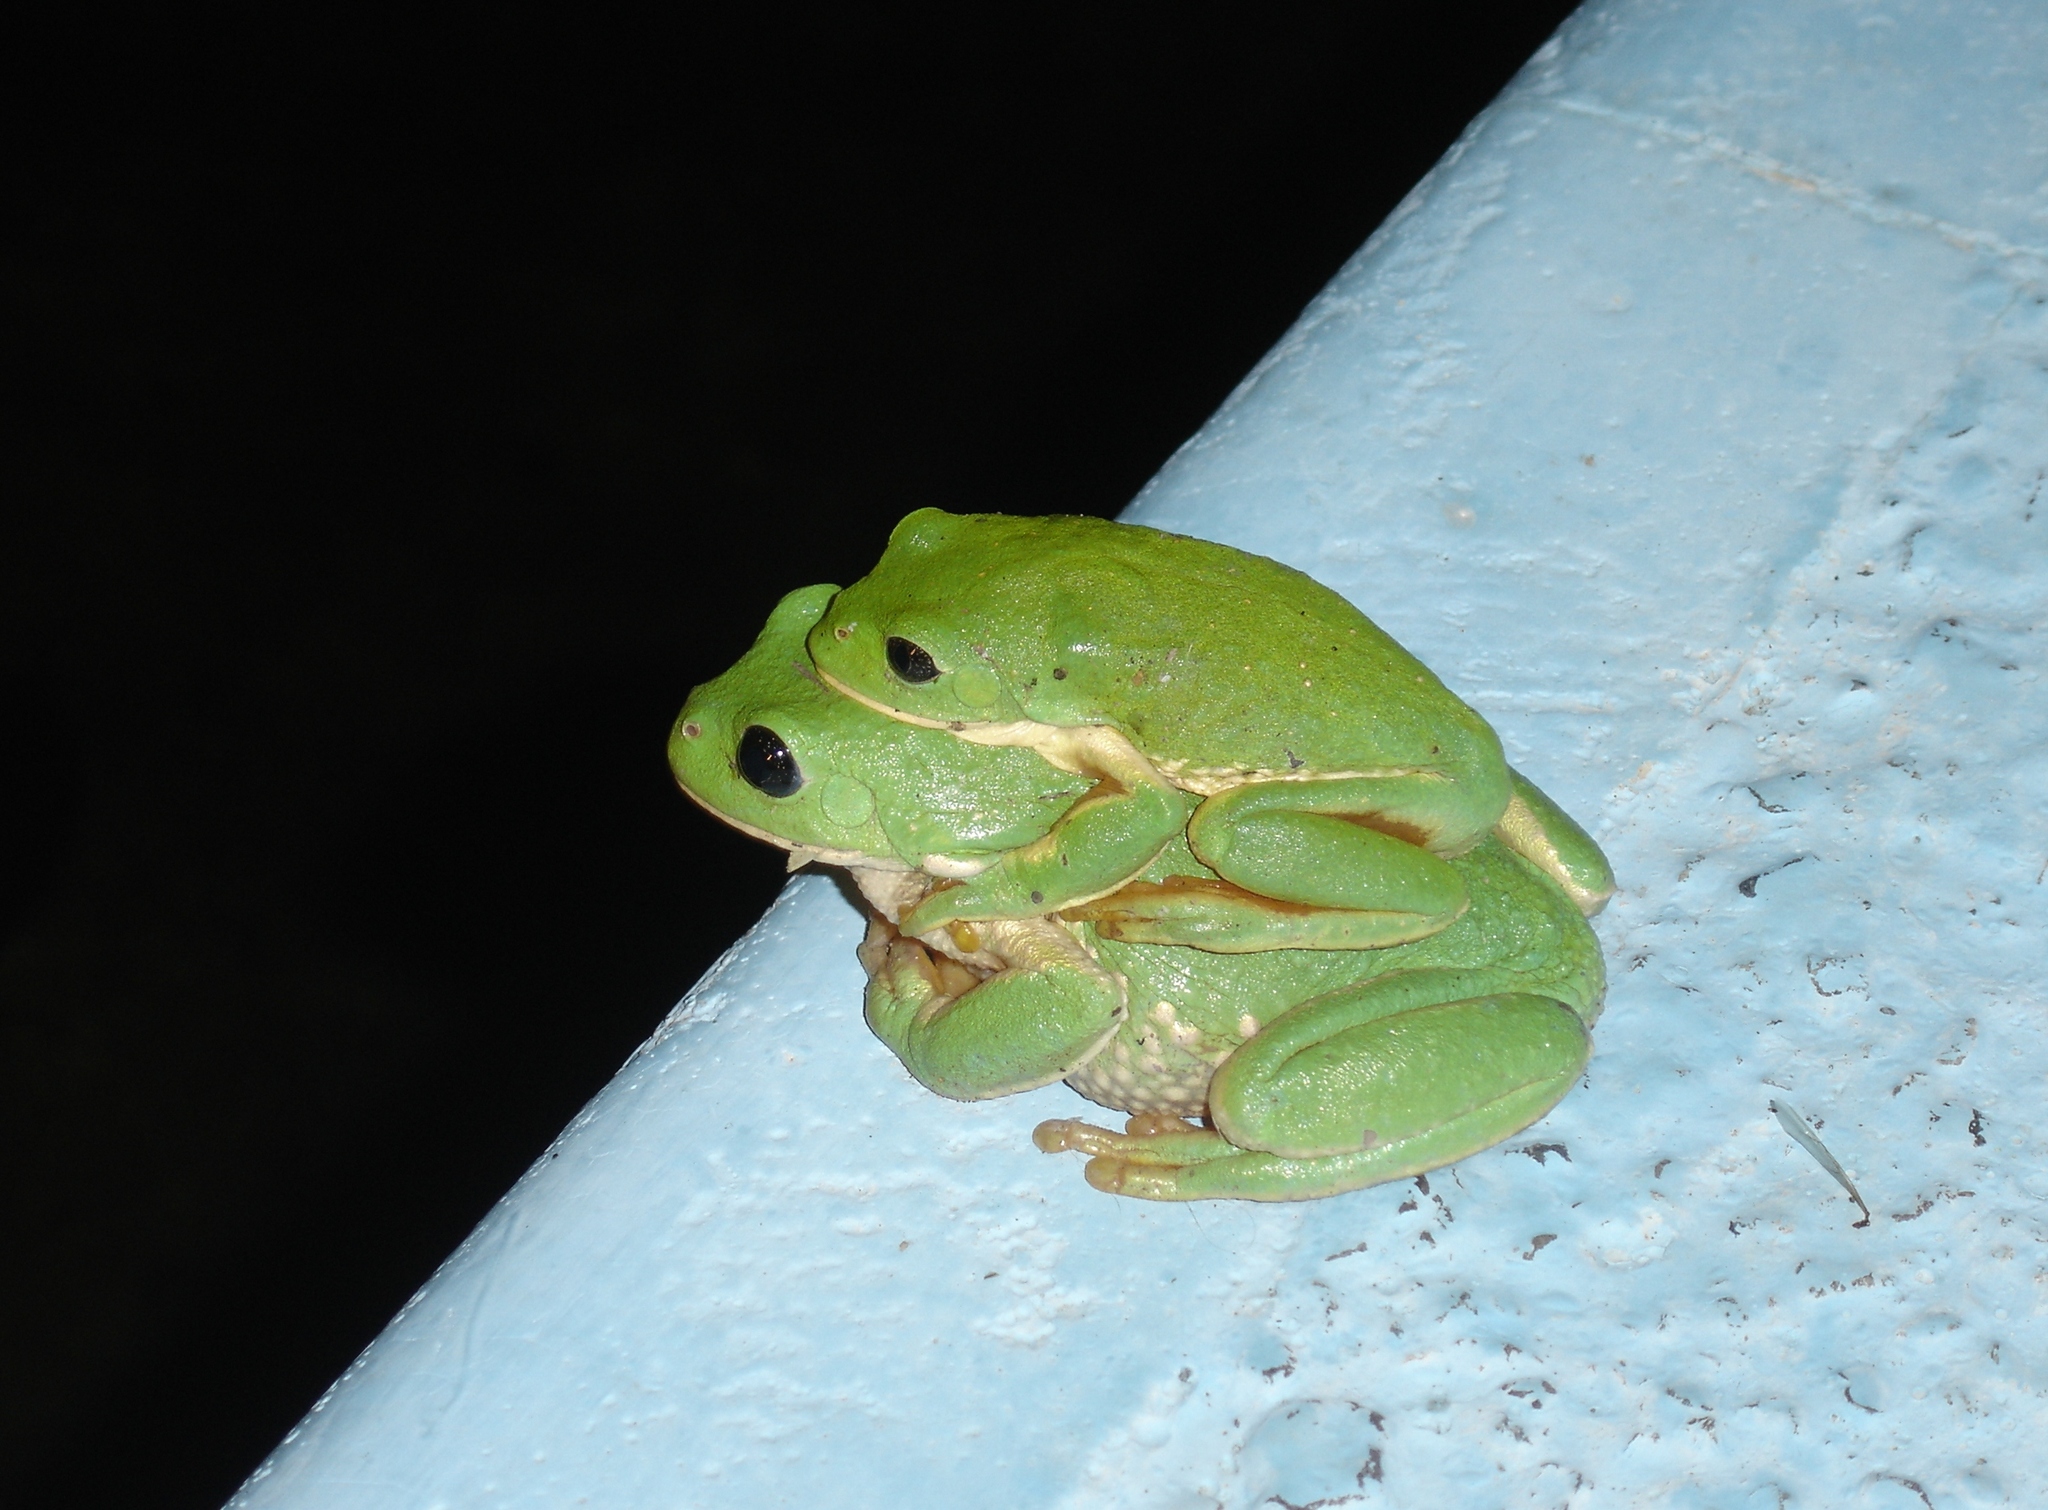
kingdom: Animalia
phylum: Chordata
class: Amphibia
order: Anura
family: Phyllomedusidae
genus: Agalychnis
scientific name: Agalychnis dacnicolor
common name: Mexican giant tree frog
